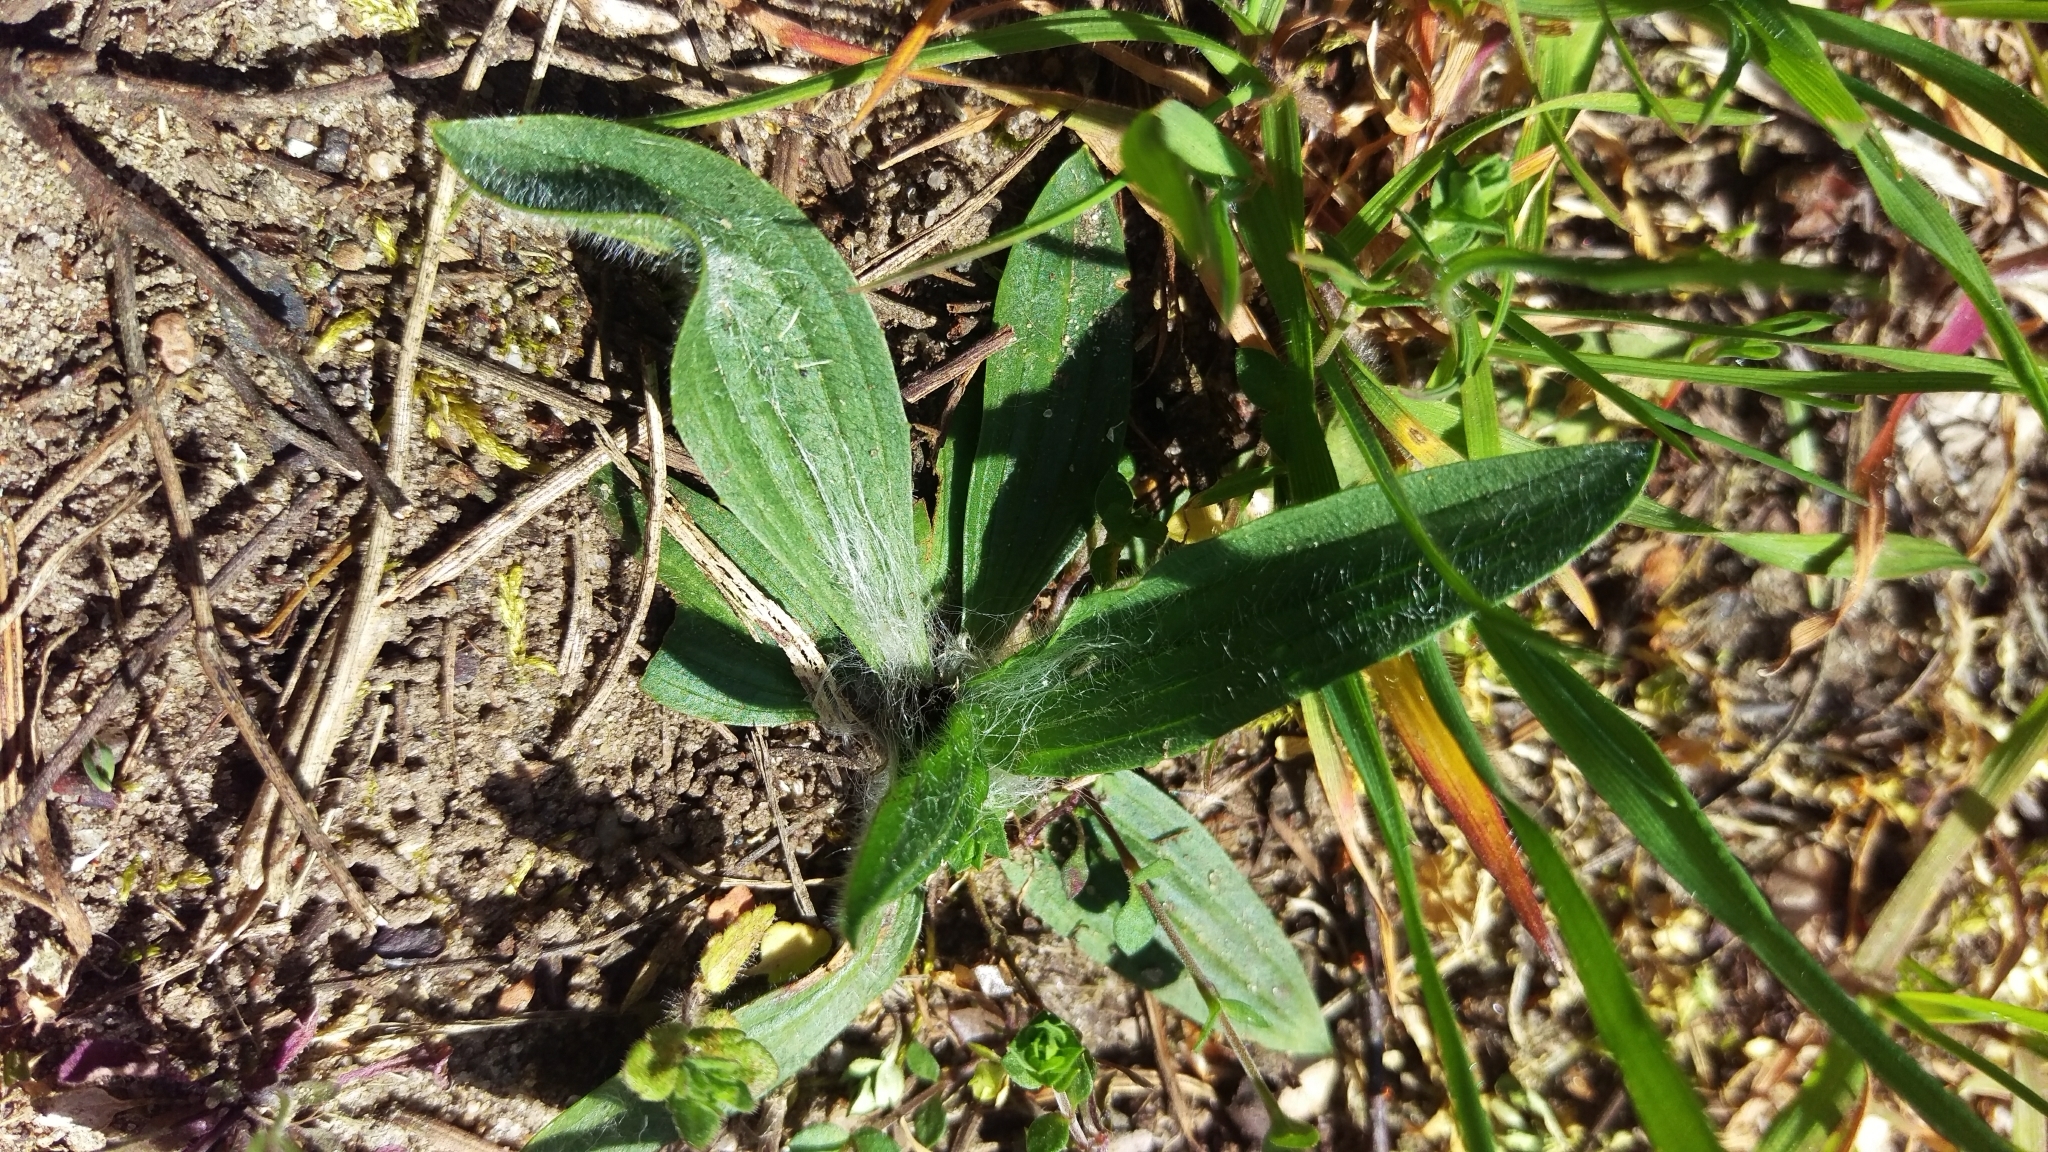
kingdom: Plantae
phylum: Tracheophyta
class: Magnoliopsida
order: Lamiales
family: Plantaginaceae
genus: Plantago
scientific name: Plantago lanceolata
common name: Ribwort plantain
